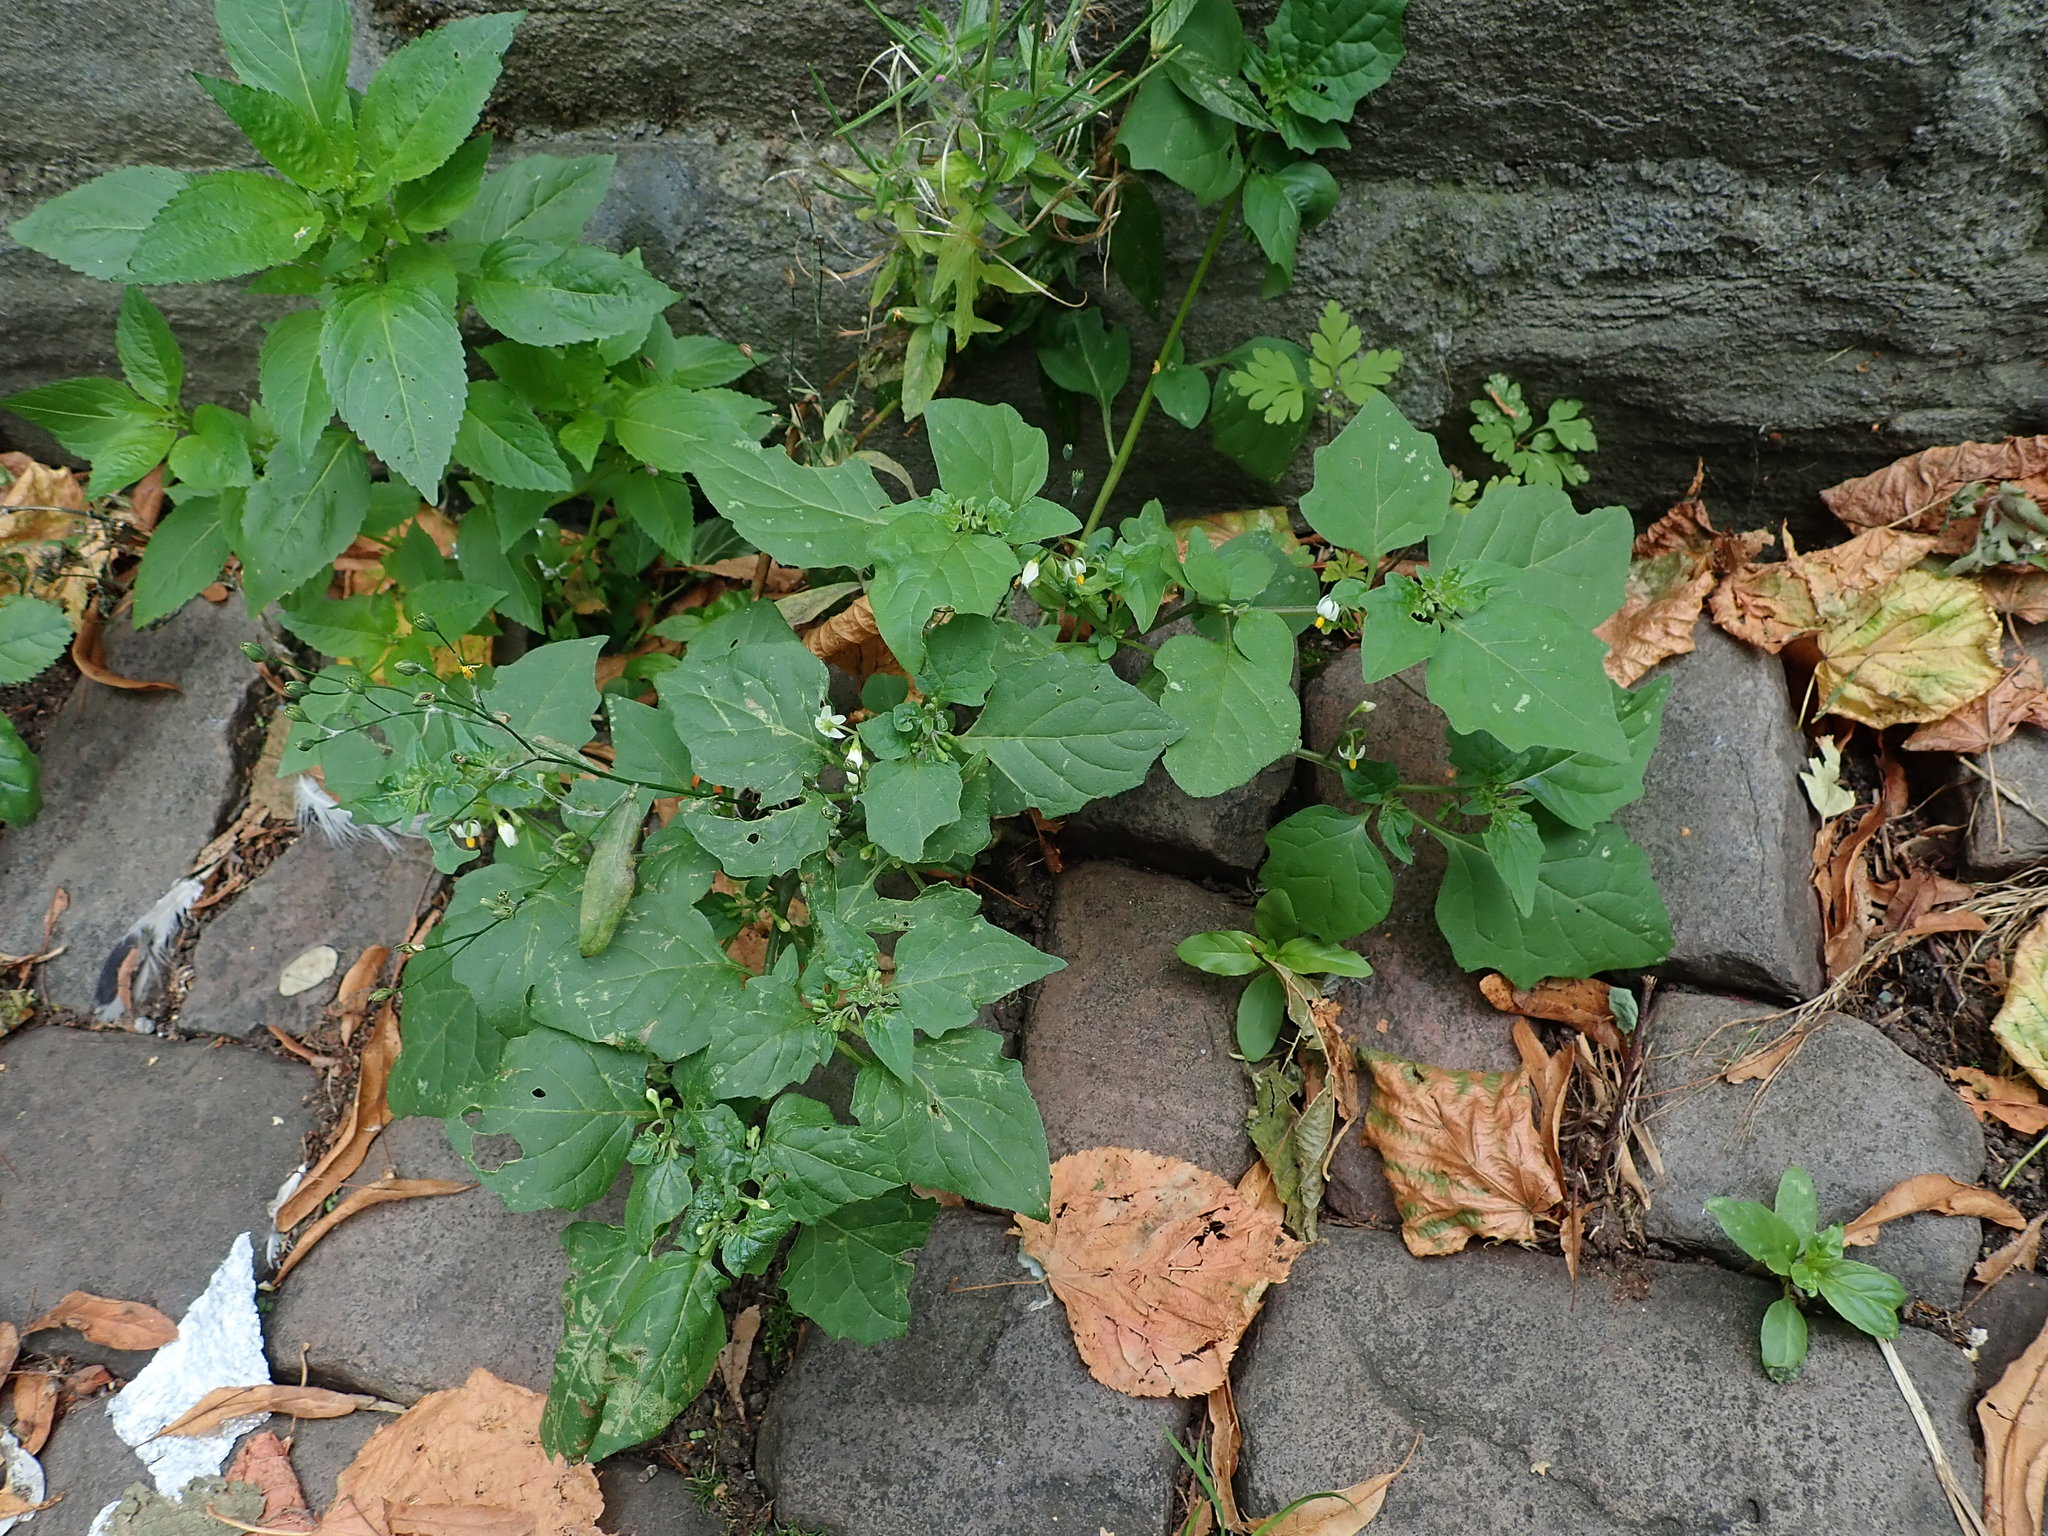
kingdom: Plantae
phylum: Tracheophyta
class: Magnoliopsida
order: Solanales
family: Solanaceae
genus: Solanum
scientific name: Solanum nigrum
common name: Black nightshade
